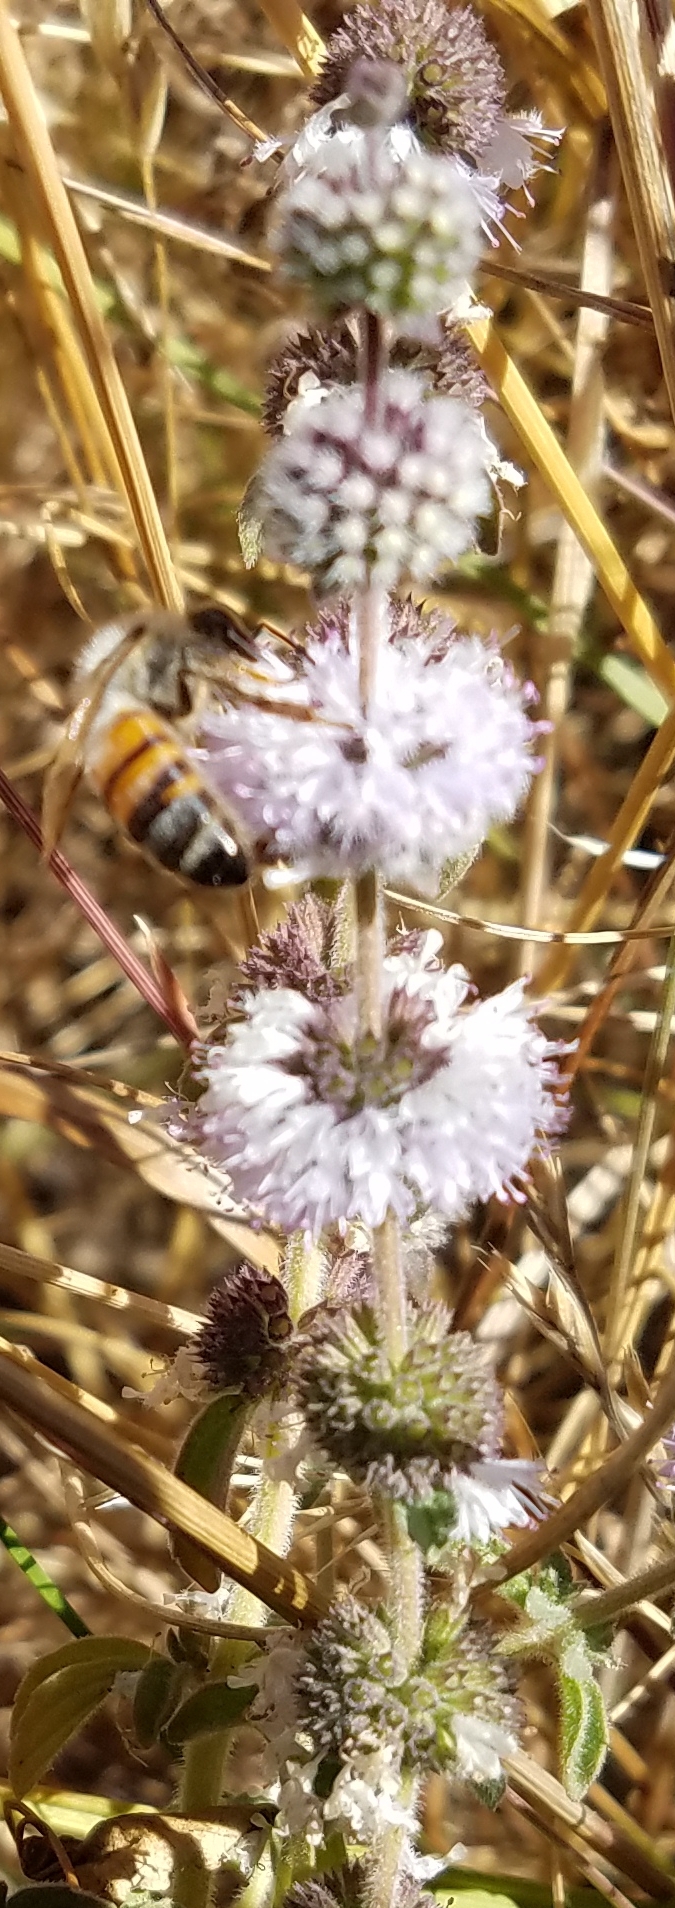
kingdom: Animalia
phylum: Arthropoda
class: Insecta
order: Hymenoptera
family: Apidae
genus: Apis
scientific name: Apis mellifera
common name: Honey bee
